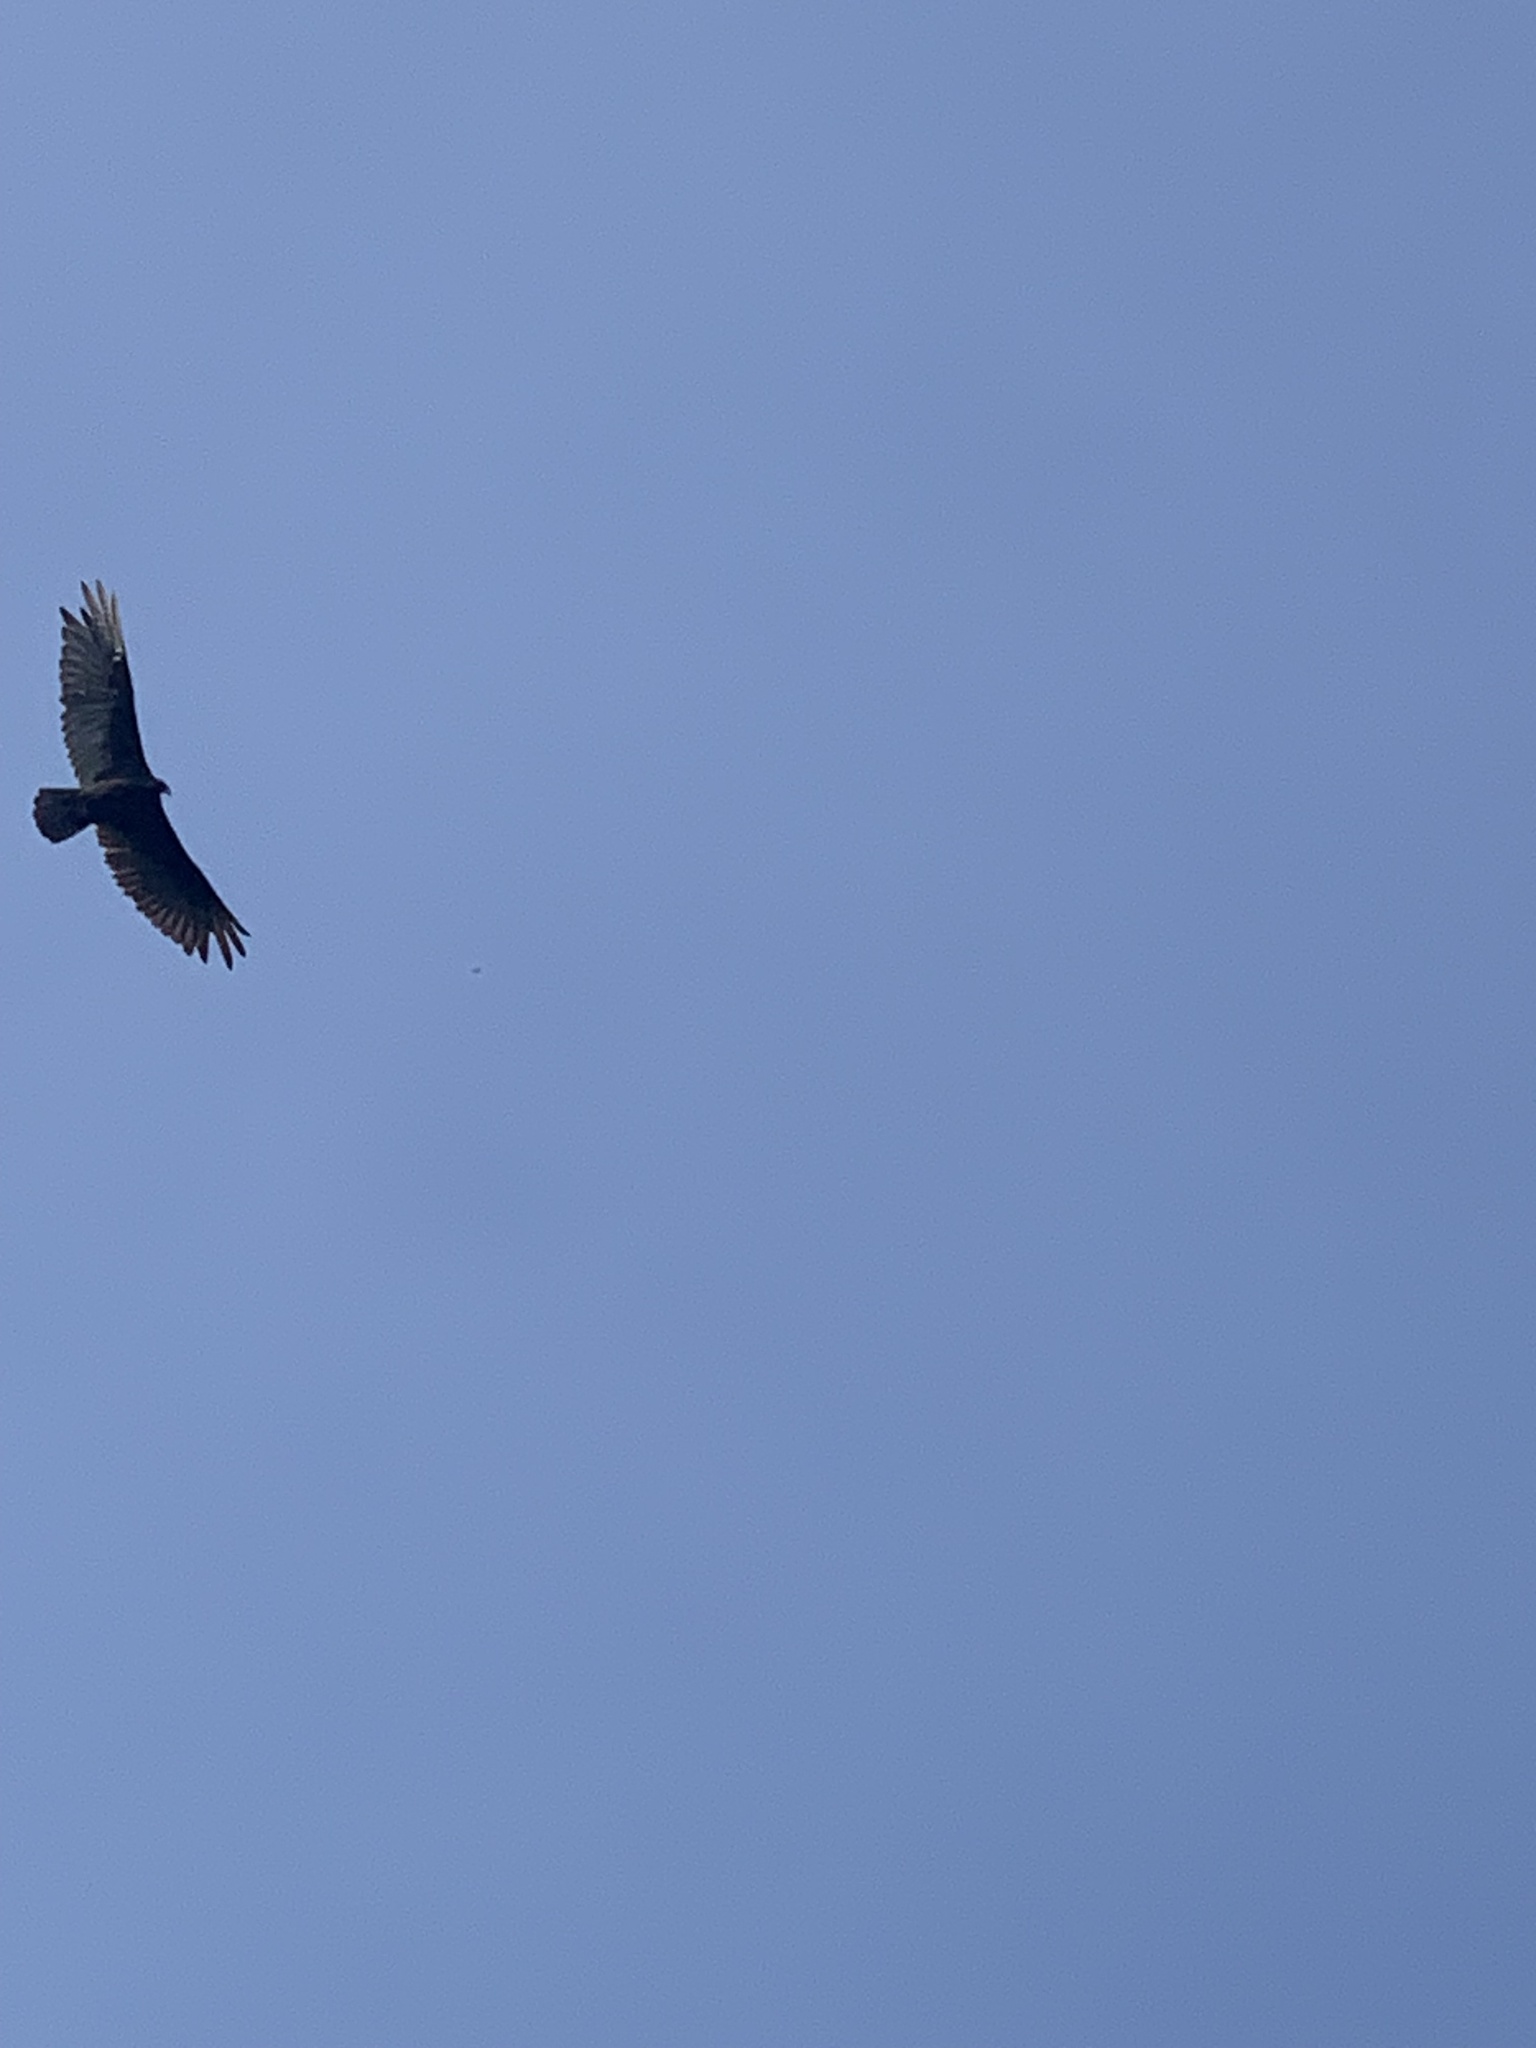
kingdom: Animalia
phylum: Chordata
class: Aves
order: Accipitriformes
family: Cathartidae
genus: Cathartes
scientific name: Cathartes aura
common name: Turkey vulture
